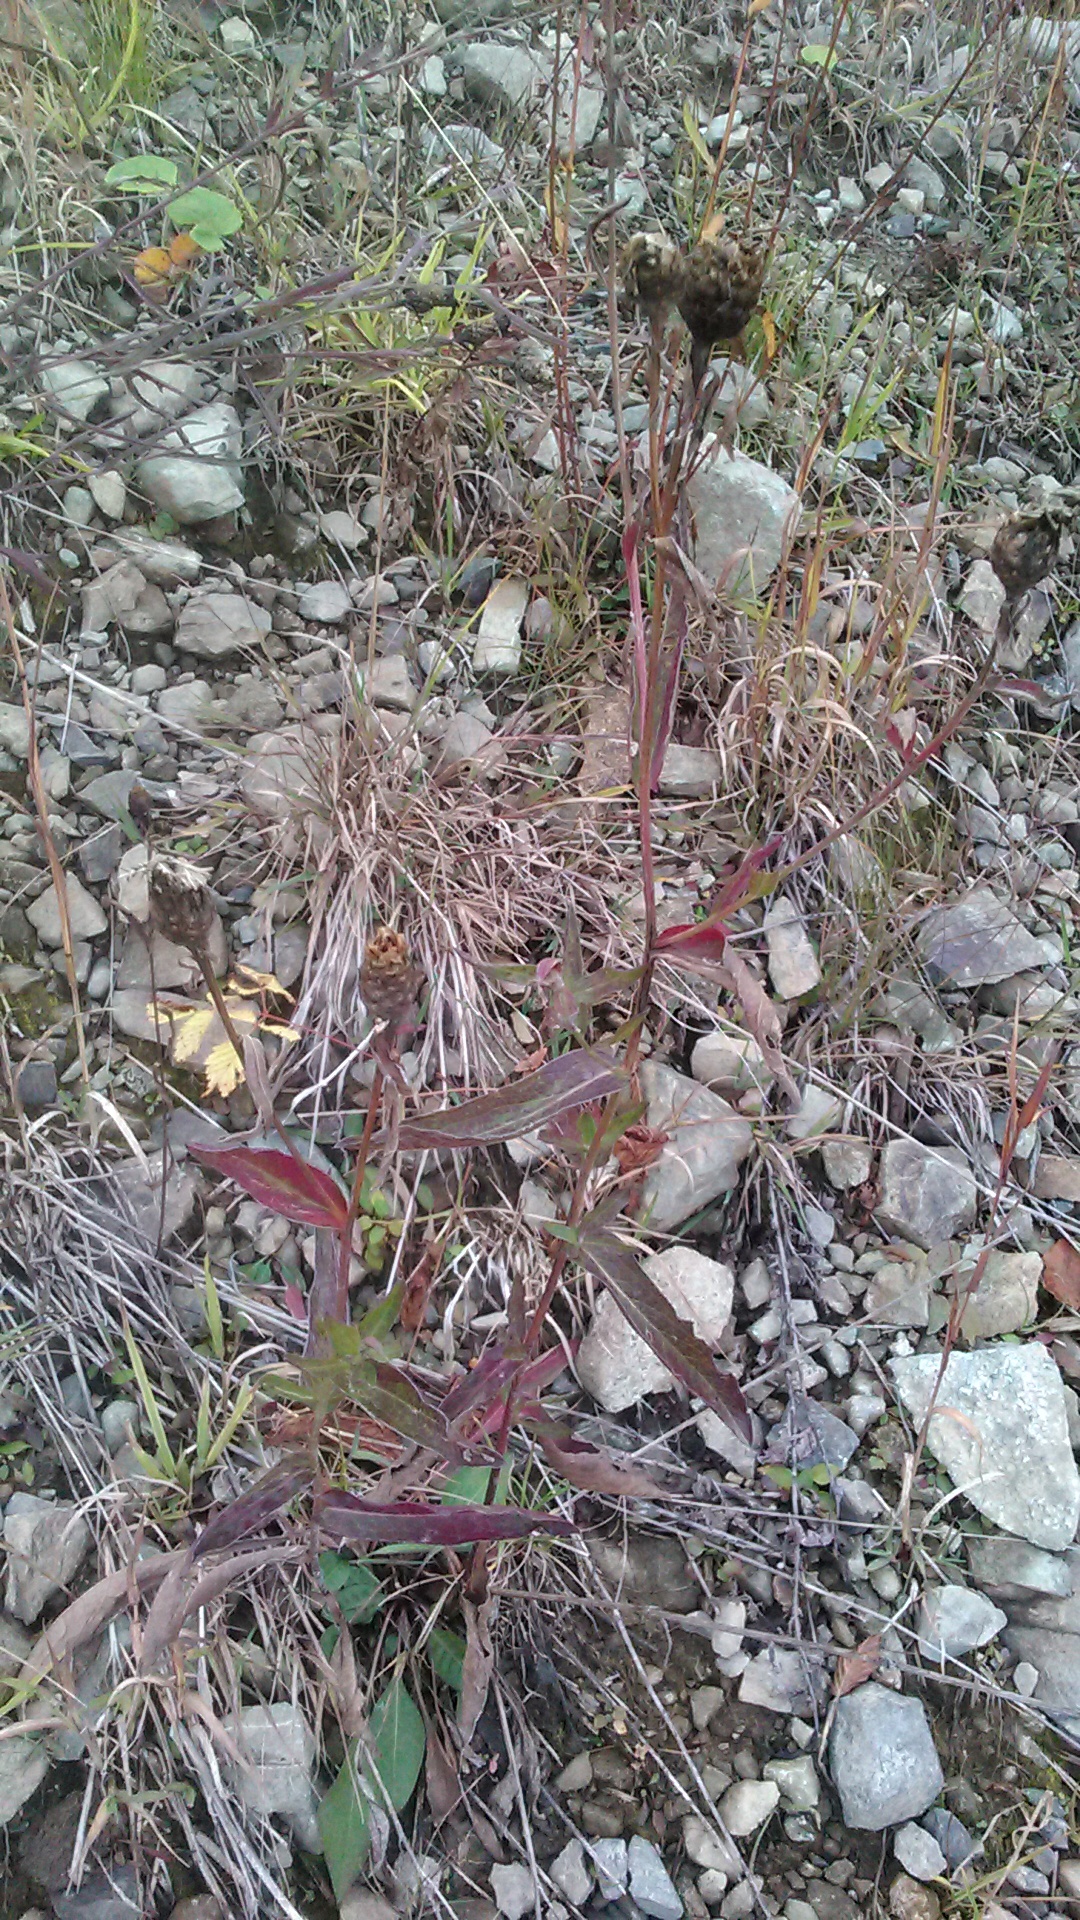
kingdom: Plantae
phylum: Tracheophyta
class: Magnoliopsida
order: Asterales
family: Asteraceae
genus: Centaurea
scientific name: Centaurea jacea
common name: Brown knapweed
